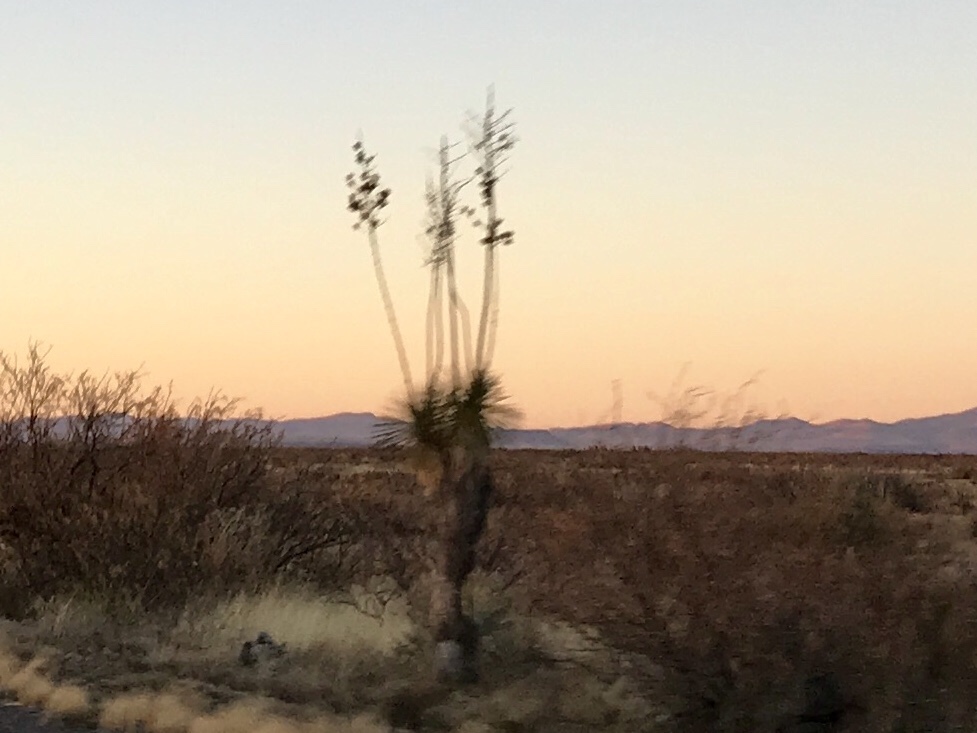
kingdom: Plantae
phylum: Tracheophyta
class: Liliopsida
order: Asparagales
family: Asparagaceae
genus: Yucca
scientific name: Yucca elata
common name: Palmella
